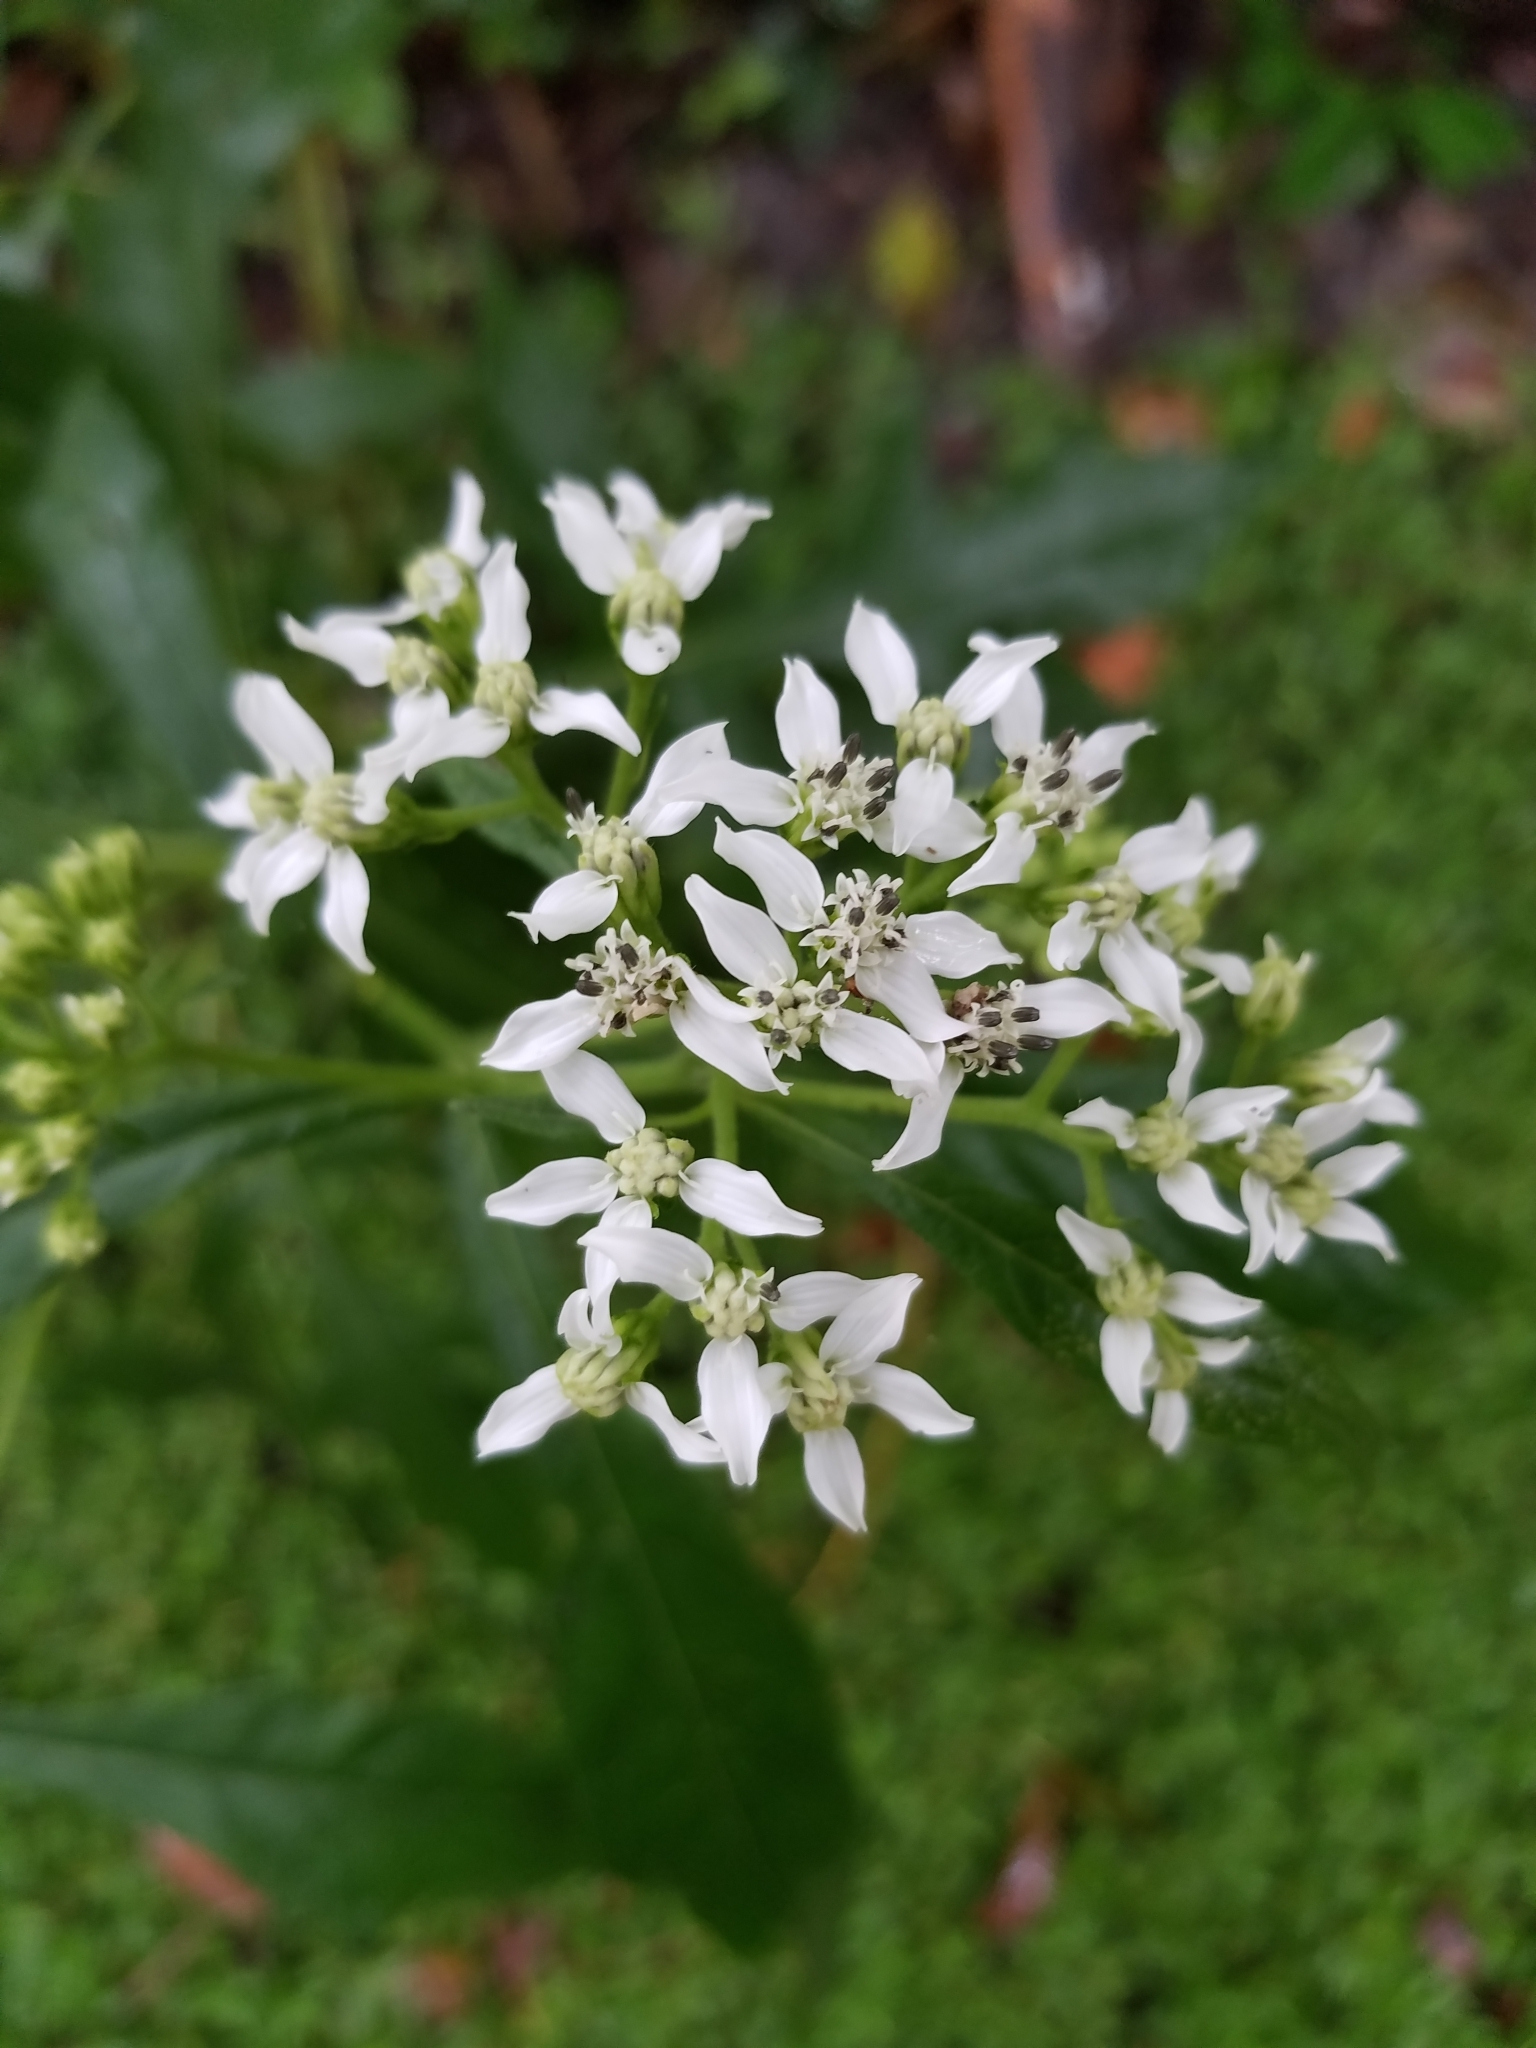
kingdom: Plantae
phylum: Tracheophyta
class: Magnoliopsida
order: Asterales
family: Asteraceae
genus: Verbesina
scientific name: Verbesina virginica
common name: Frostweed
